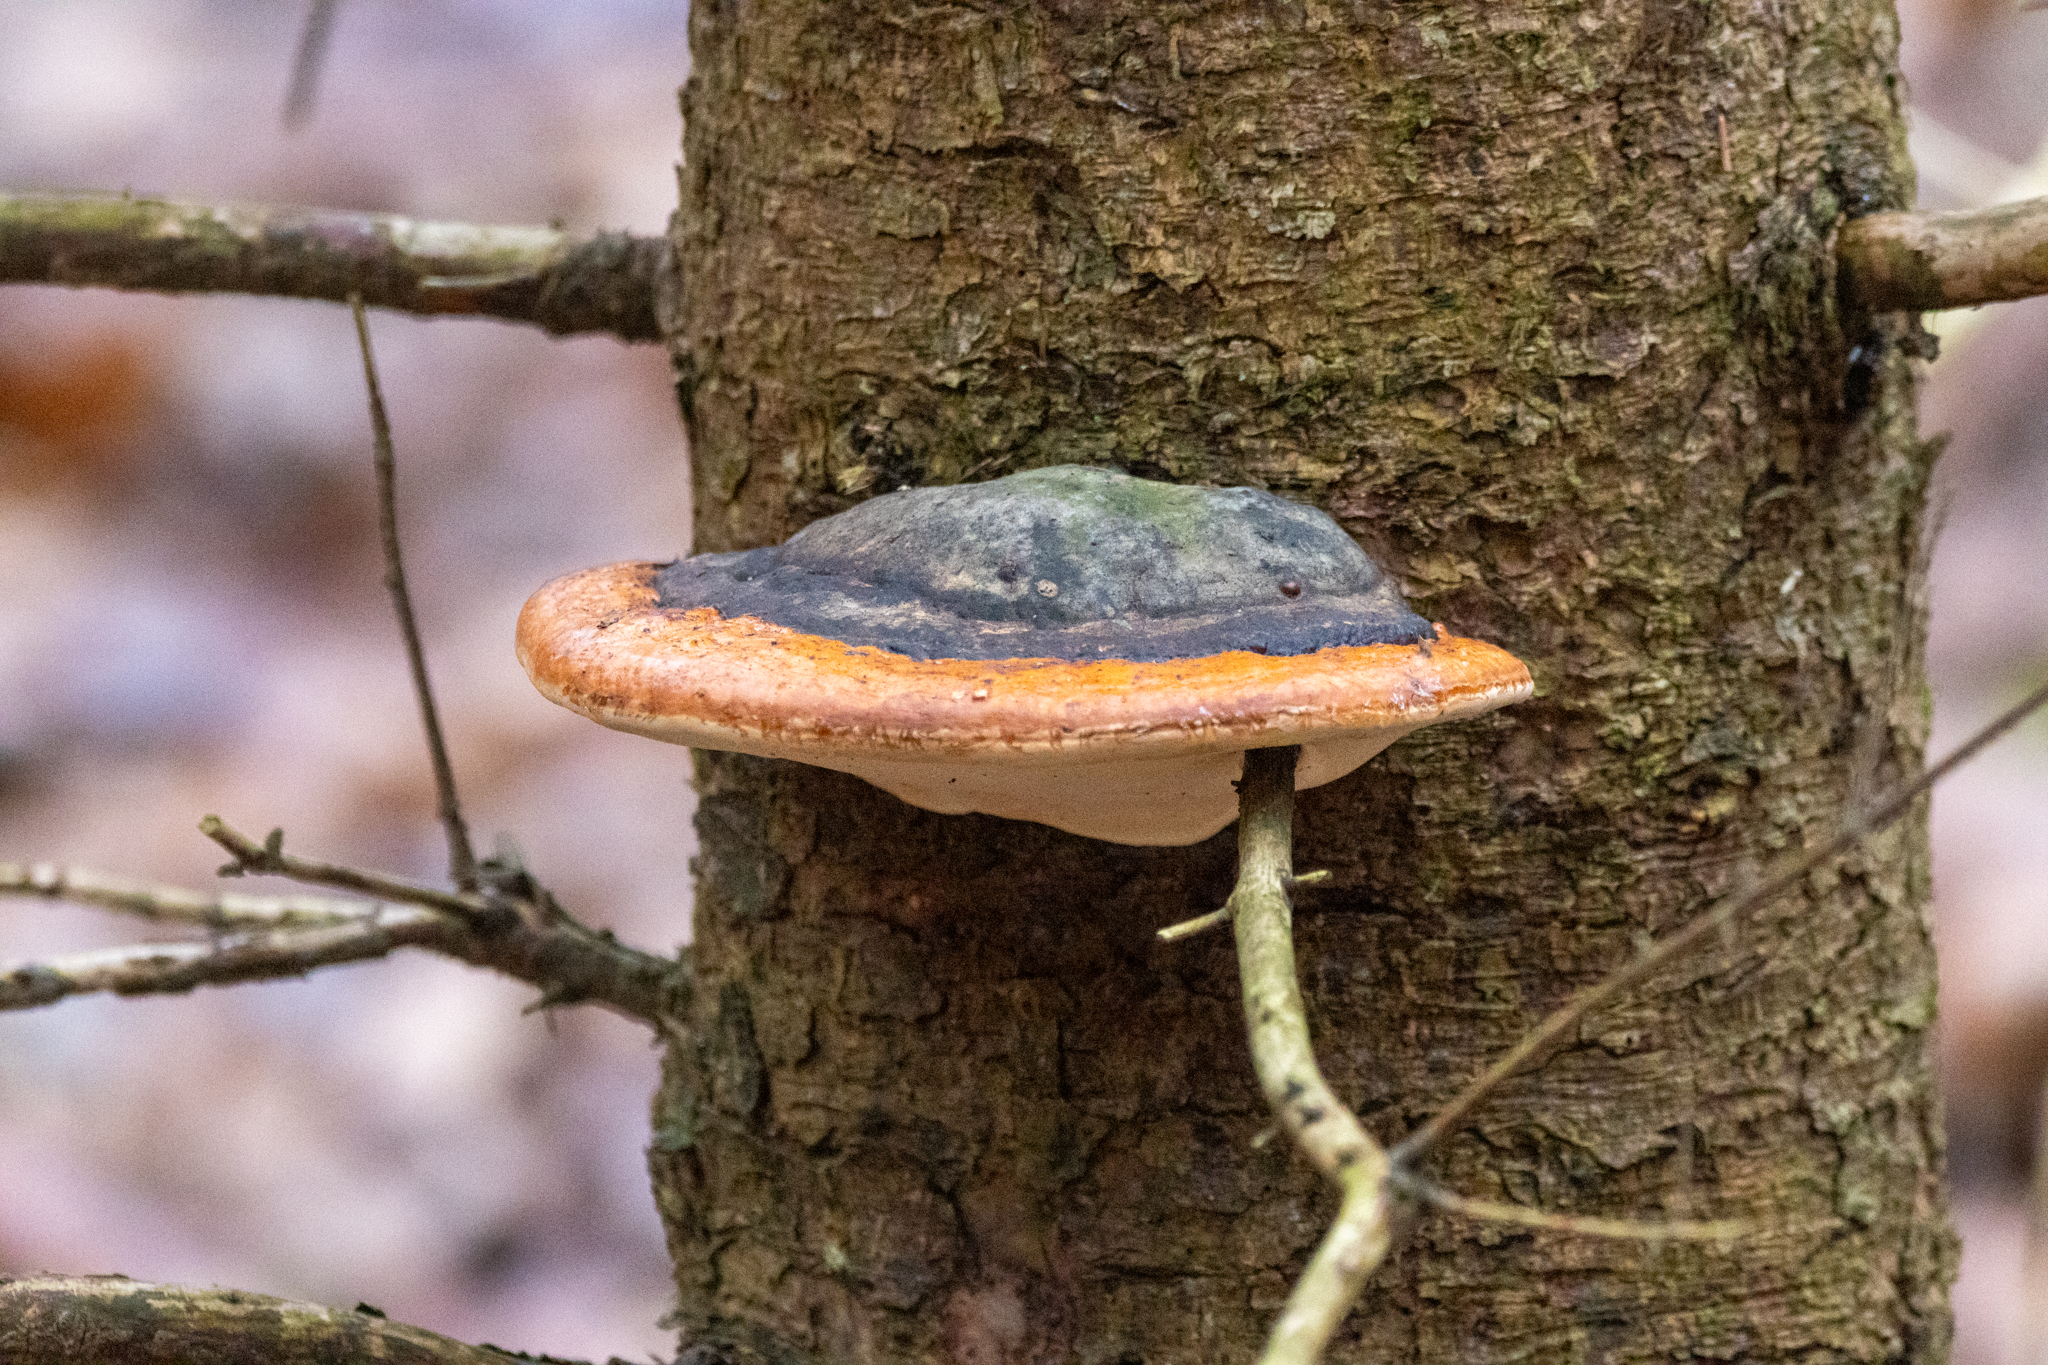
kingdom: Fungi
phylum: Basidiomycota
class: Agaricomycetes
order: Polyporales
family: Fomitopsidaceae
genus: Fomitopsis
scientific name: Fomitopsis mounceae
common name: Northern red belt
